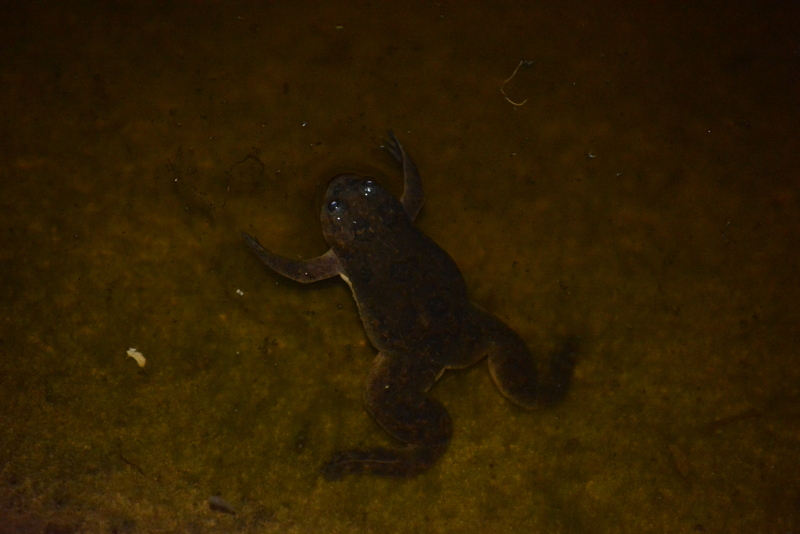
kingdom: Animalia
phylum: Chordata
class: Amphibia
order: Anura
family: Pipidae
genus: Xenopus
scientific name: Xenopus laevis
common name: African clawed frog
